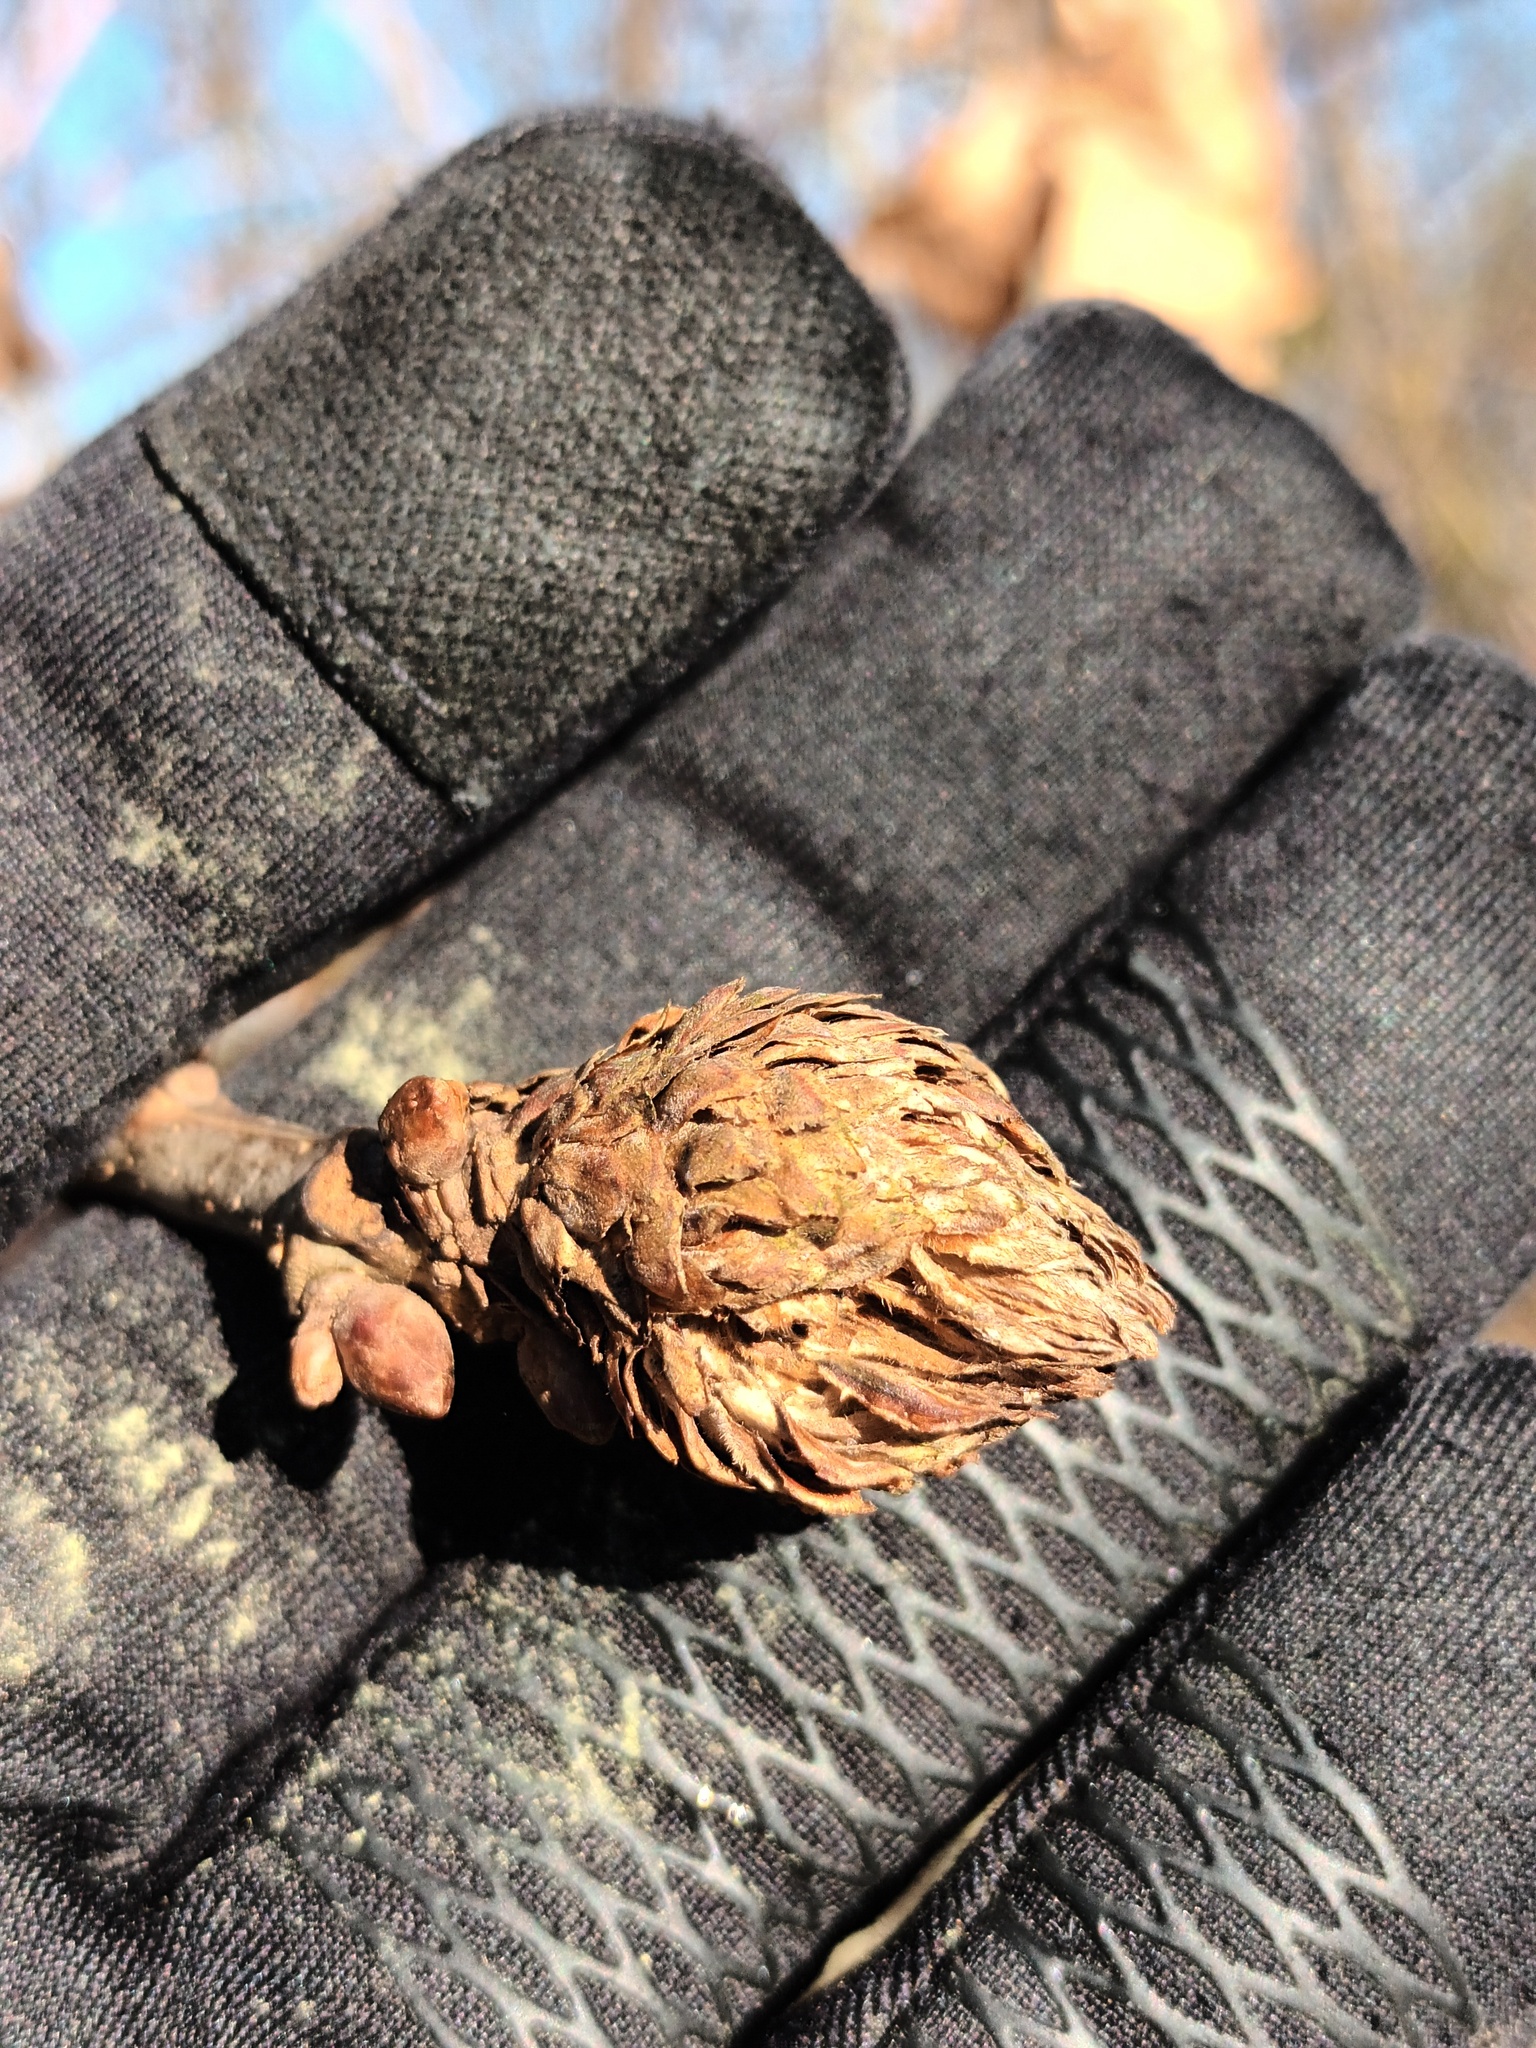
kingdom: Animalia
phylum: Arthropoda
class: Insecta
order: Hymenoptera
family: Cynipidae
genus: Andricus
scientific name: Andricus foecundatrix
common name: Artichoke gall
